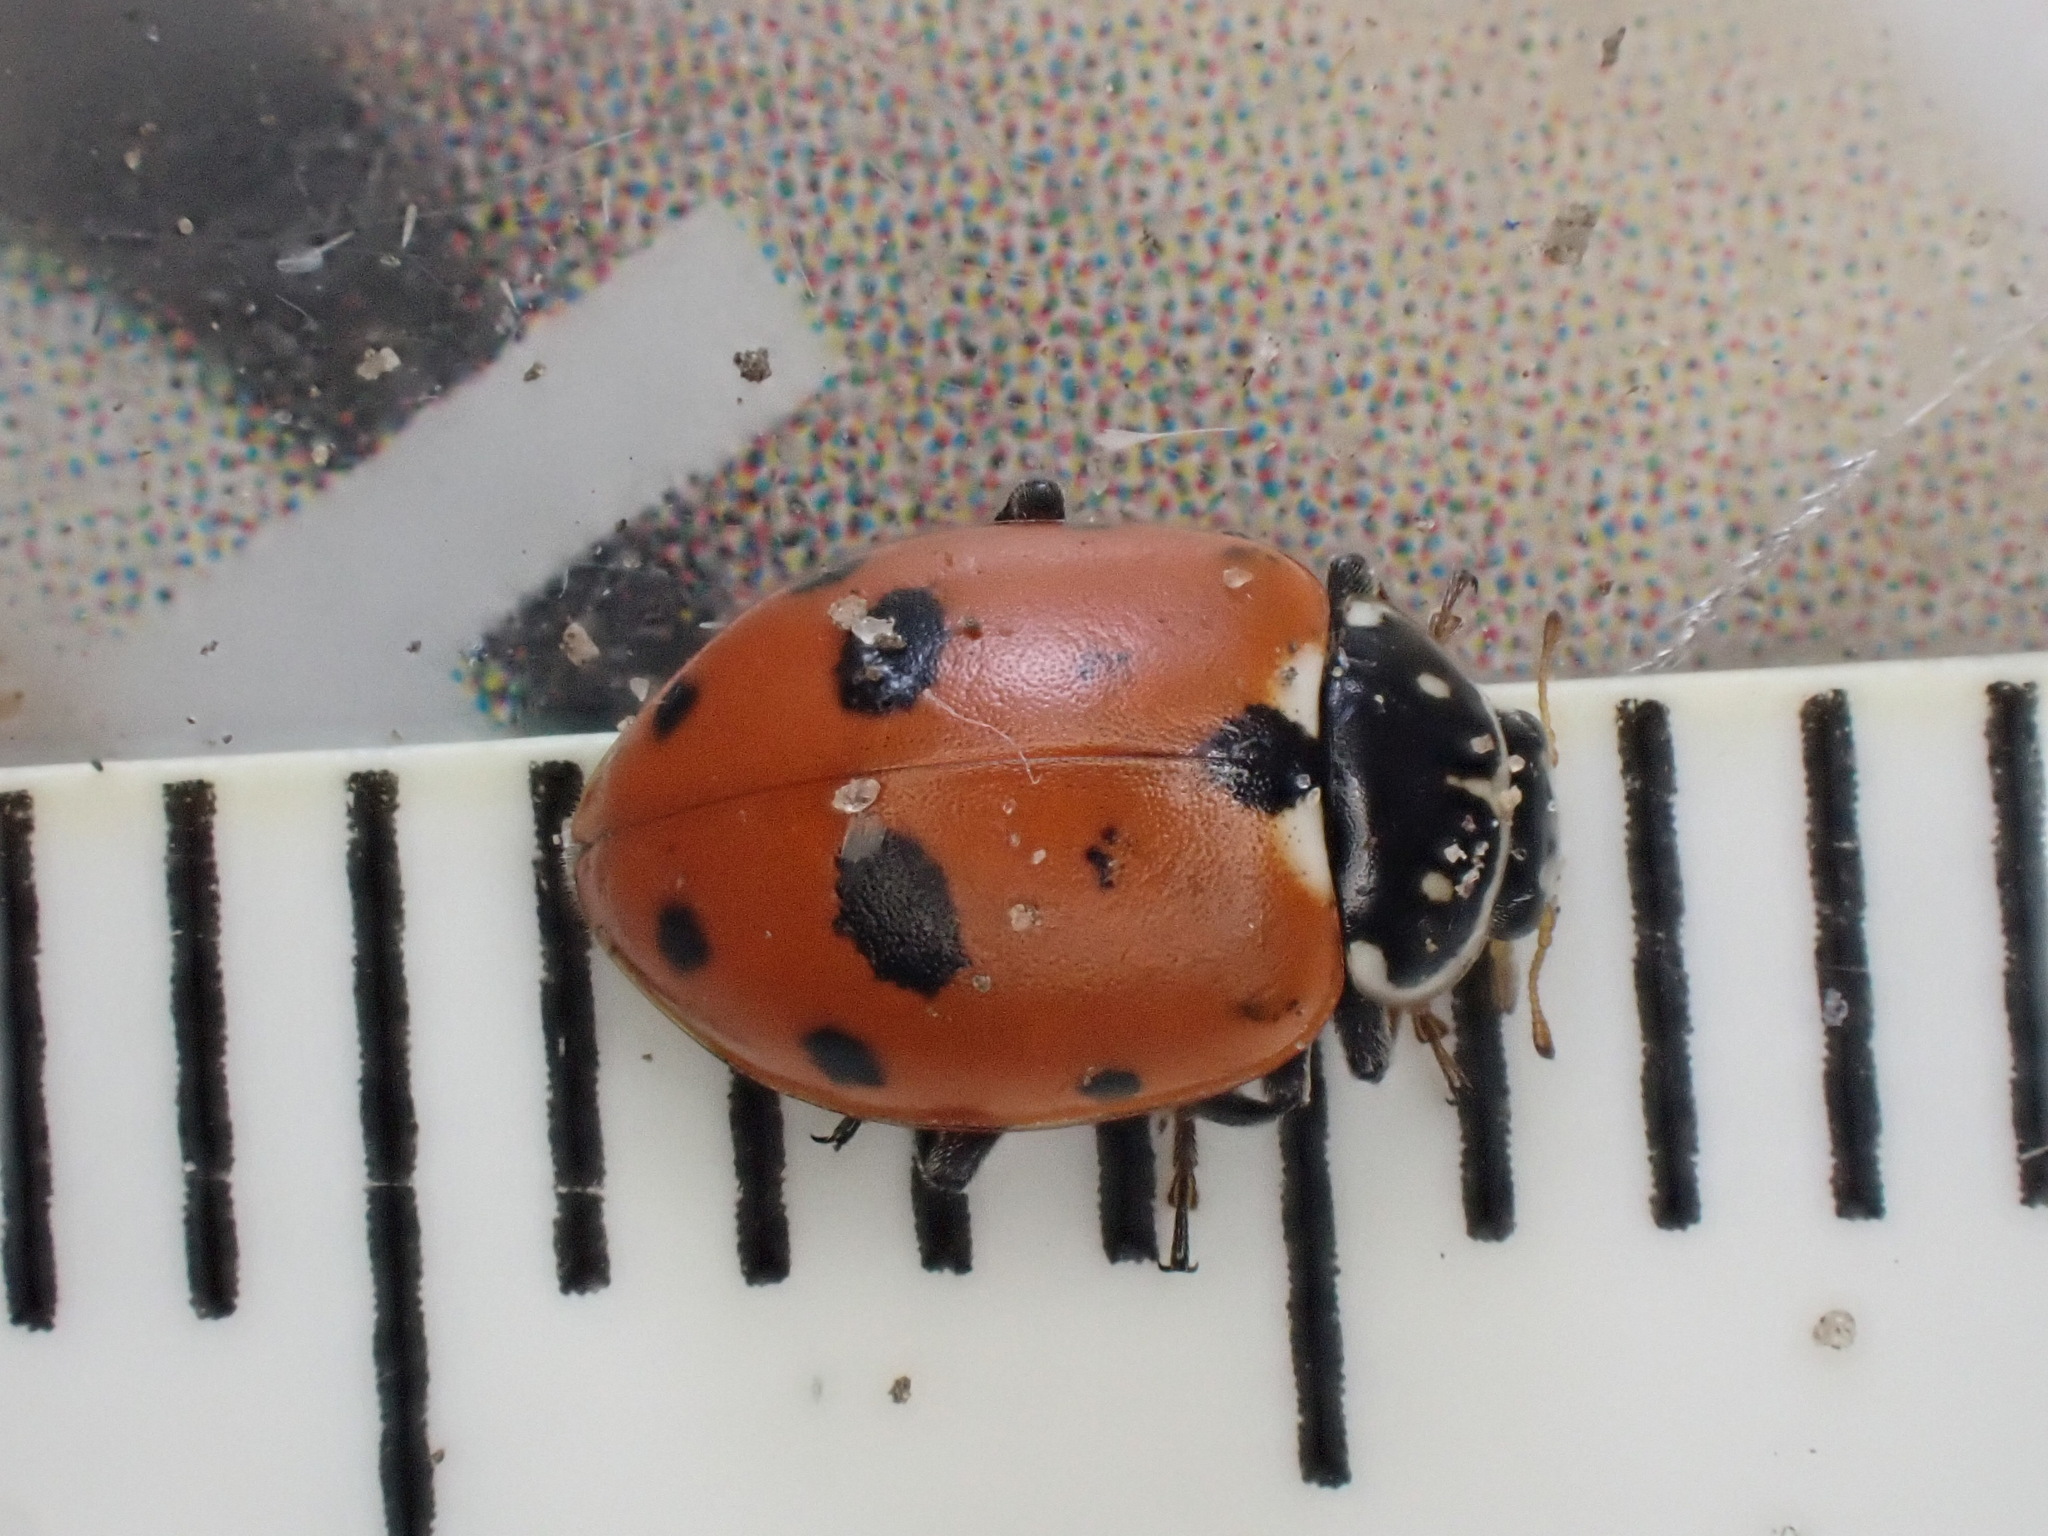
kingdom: Animalia
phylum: Arthropoda
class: Insecta
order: Coleoptera
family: Coccinellidae
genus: Hippodamia
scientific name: Hippodamia variegata
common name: Ladybird beetle
